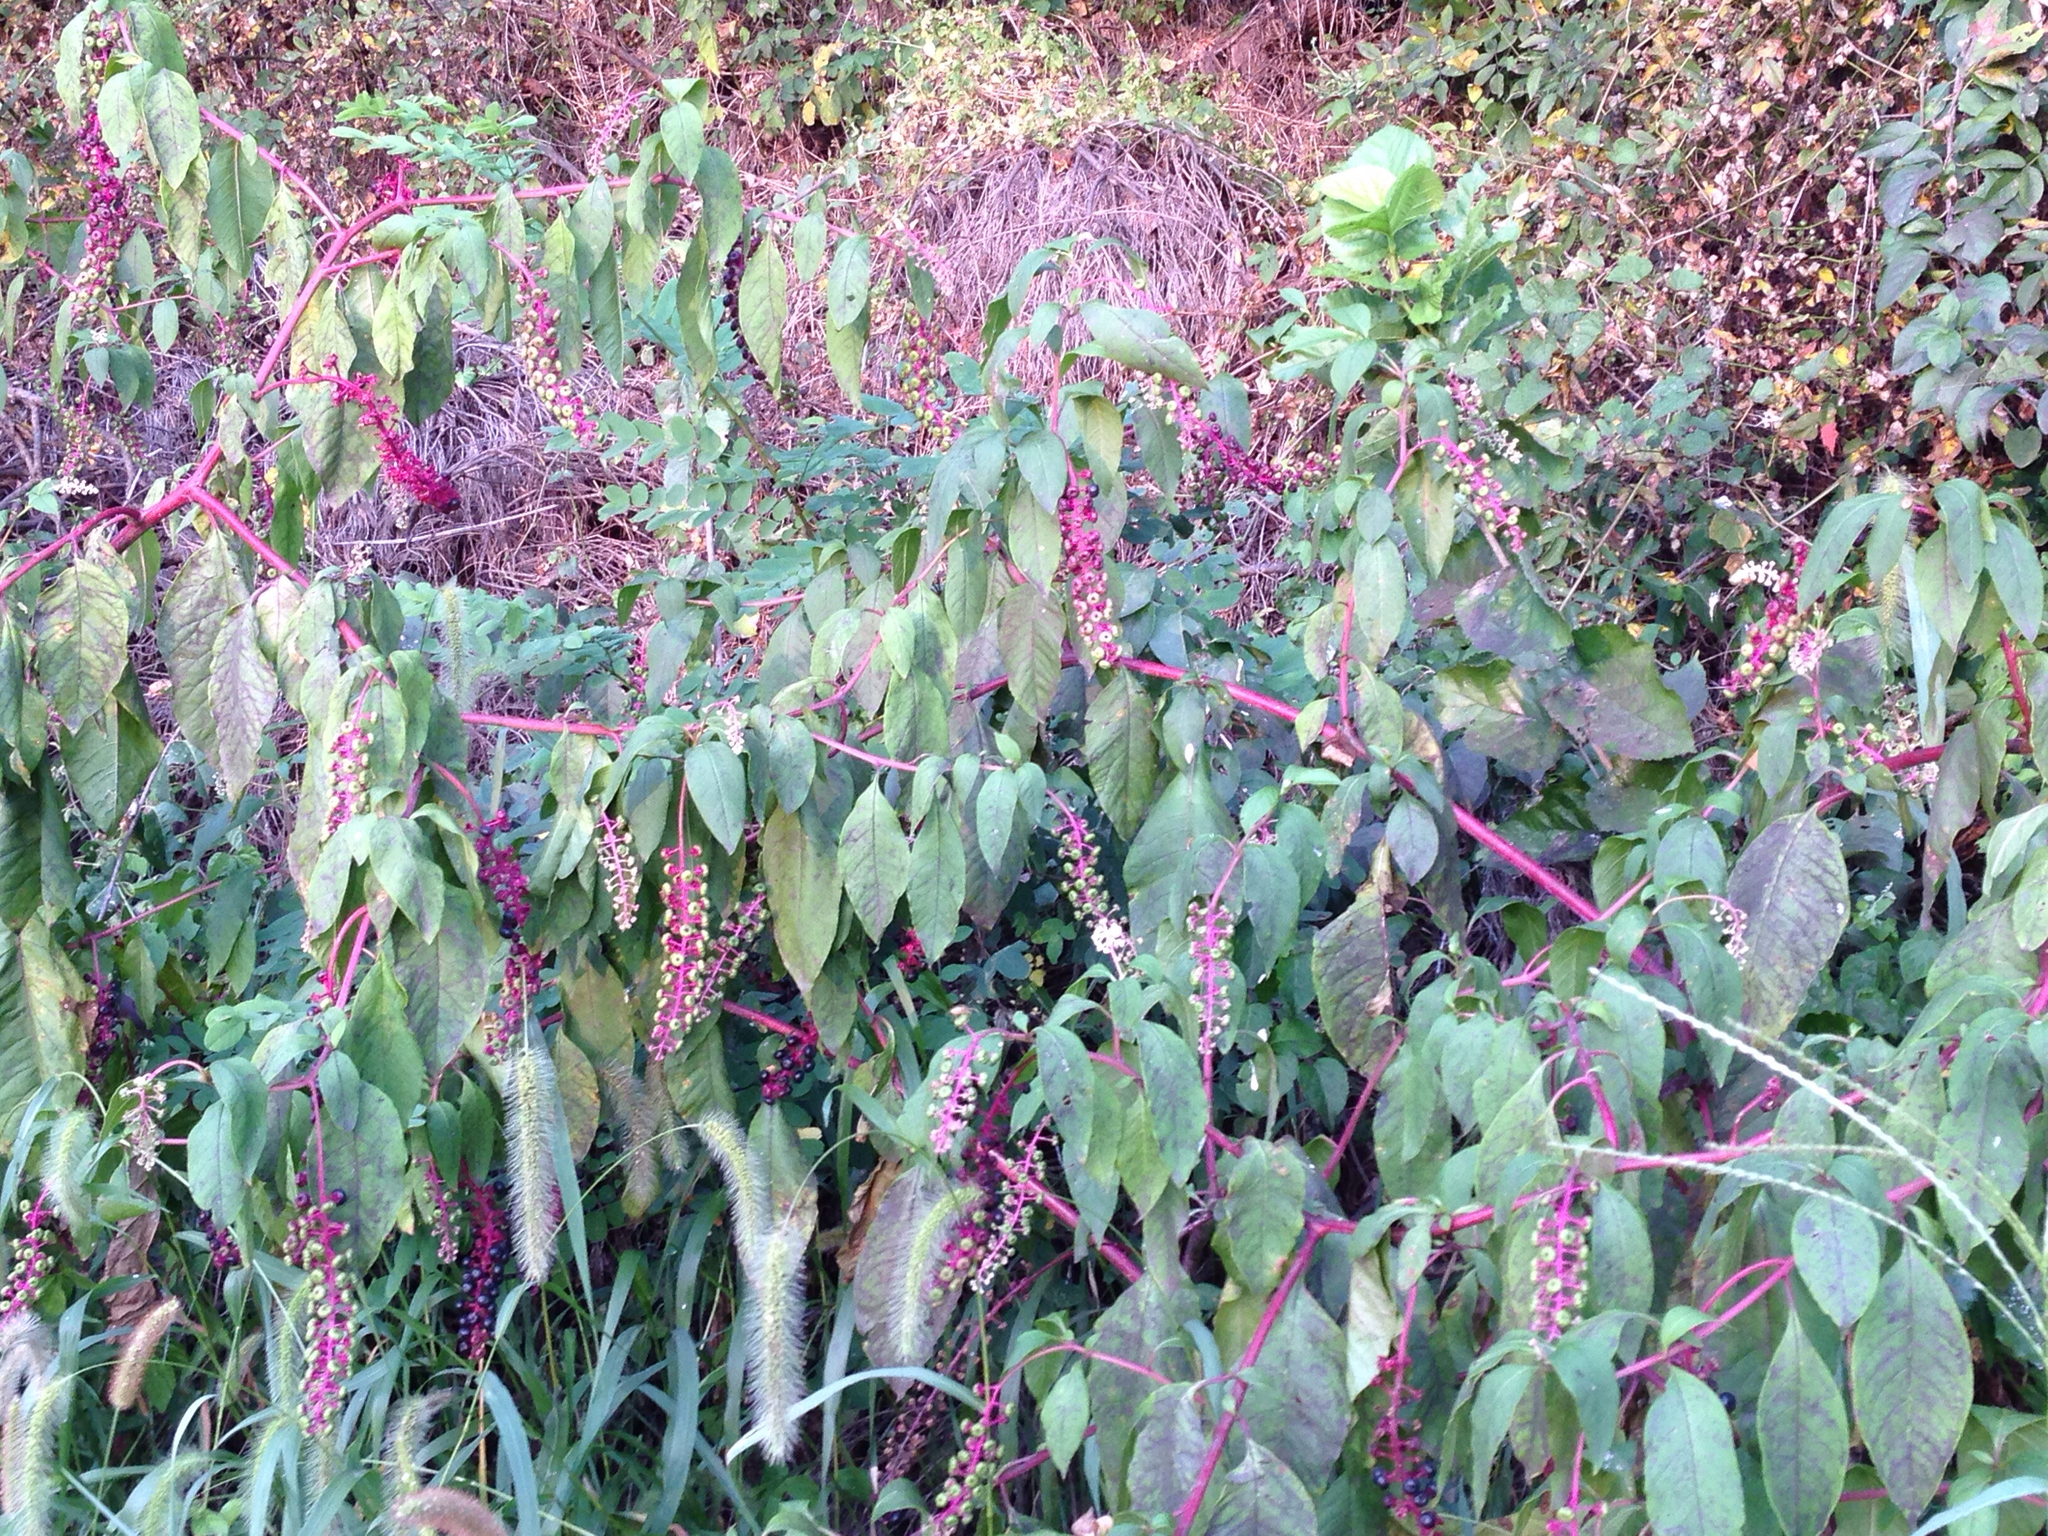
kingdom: Plantae
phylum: Tracheophyta
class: Magnoliopsida
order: Caryophyllales
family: Phytolaccaceae
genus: Phytolacca
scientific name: Phytolacca americana
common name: American pokeweed
